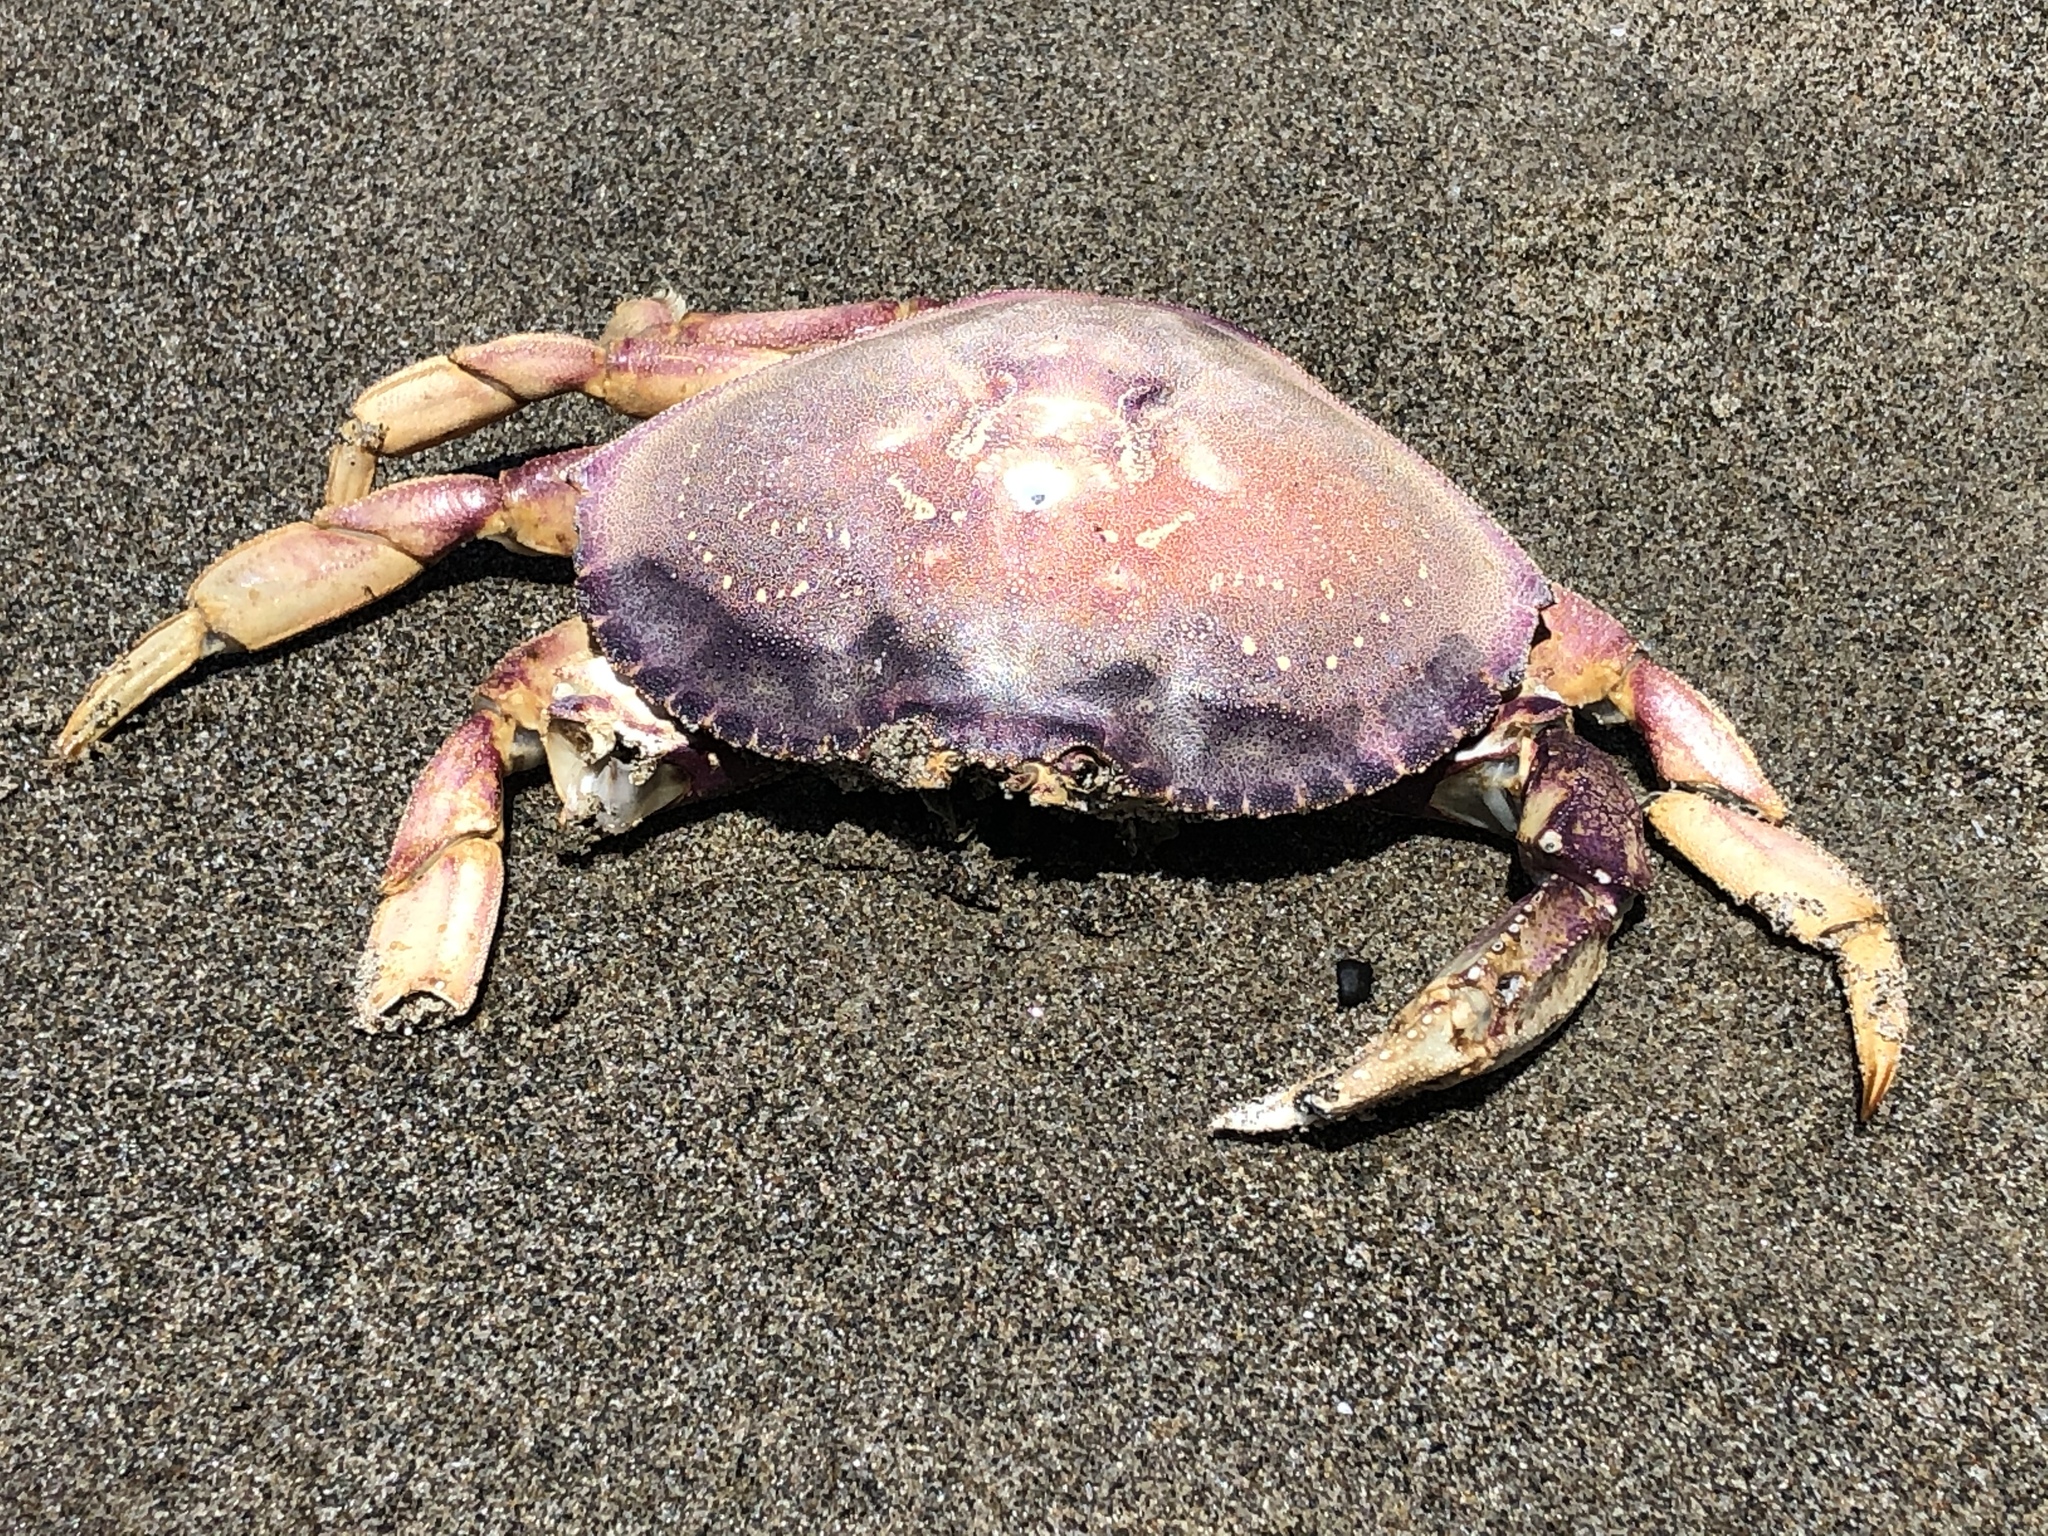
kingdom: Animalia
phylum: Arthropoda
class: Malacostraca
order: Decapoda
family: Cancridae
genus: Metacarcinus
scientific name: Metacarcinus magister
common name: Californian crab
